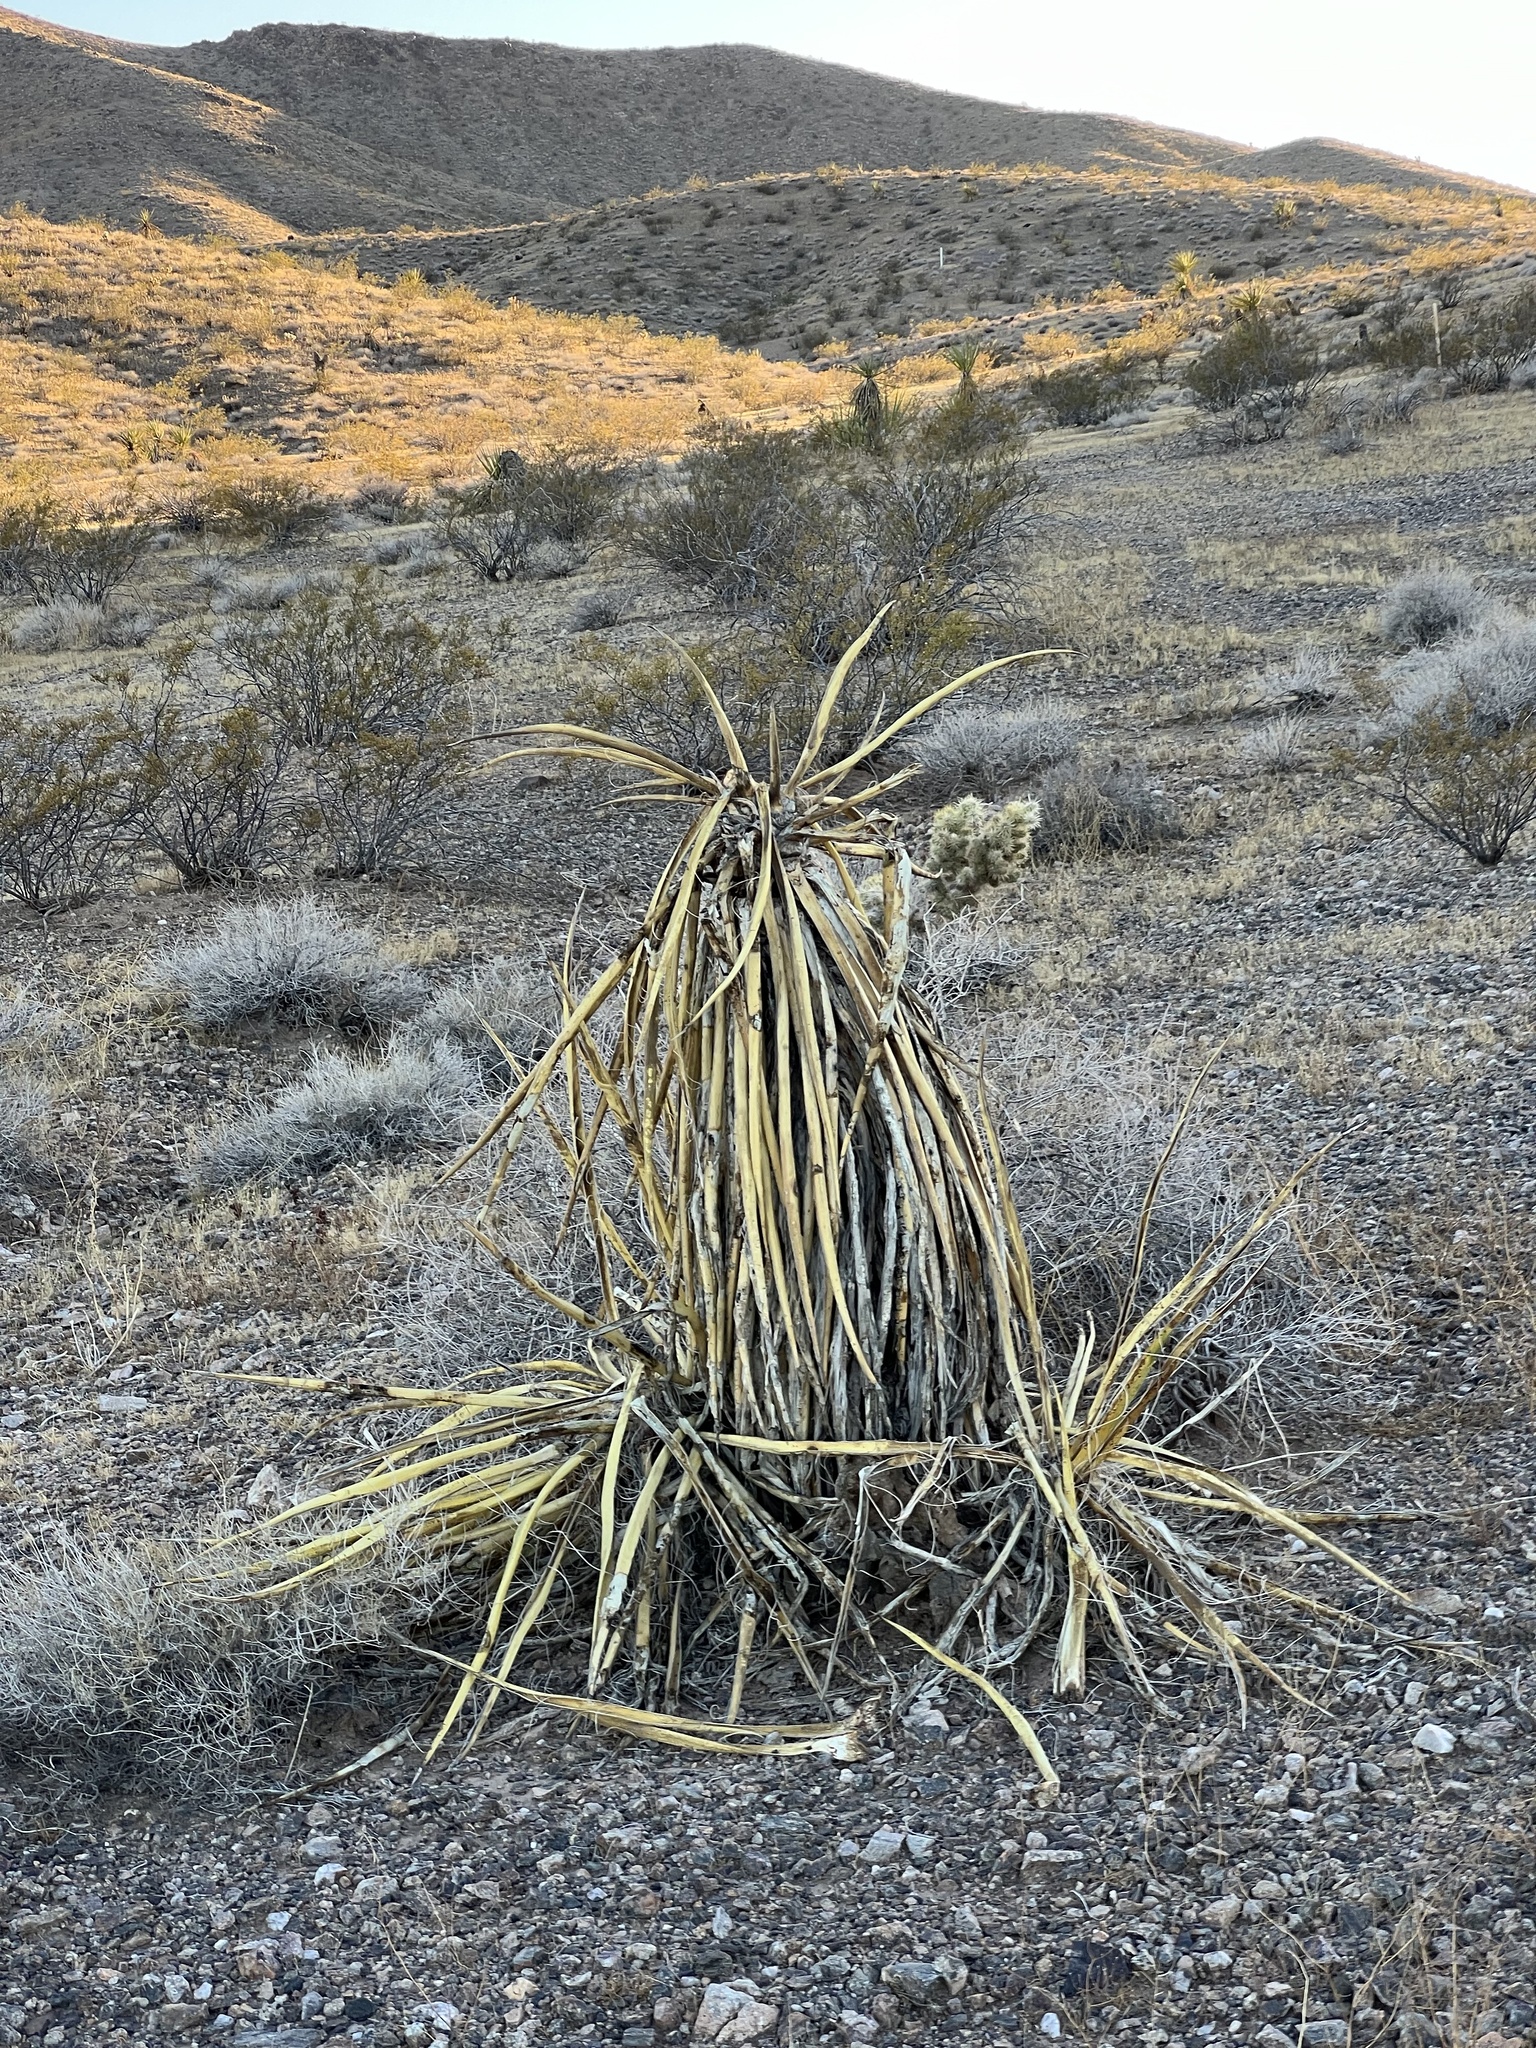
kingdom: Plantae
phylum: Tracheophyta
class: Liliopsida
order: Asparagales
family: Asparagaceae
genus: Yucca
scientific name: Yucca schidigera
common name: Mojave yucca
